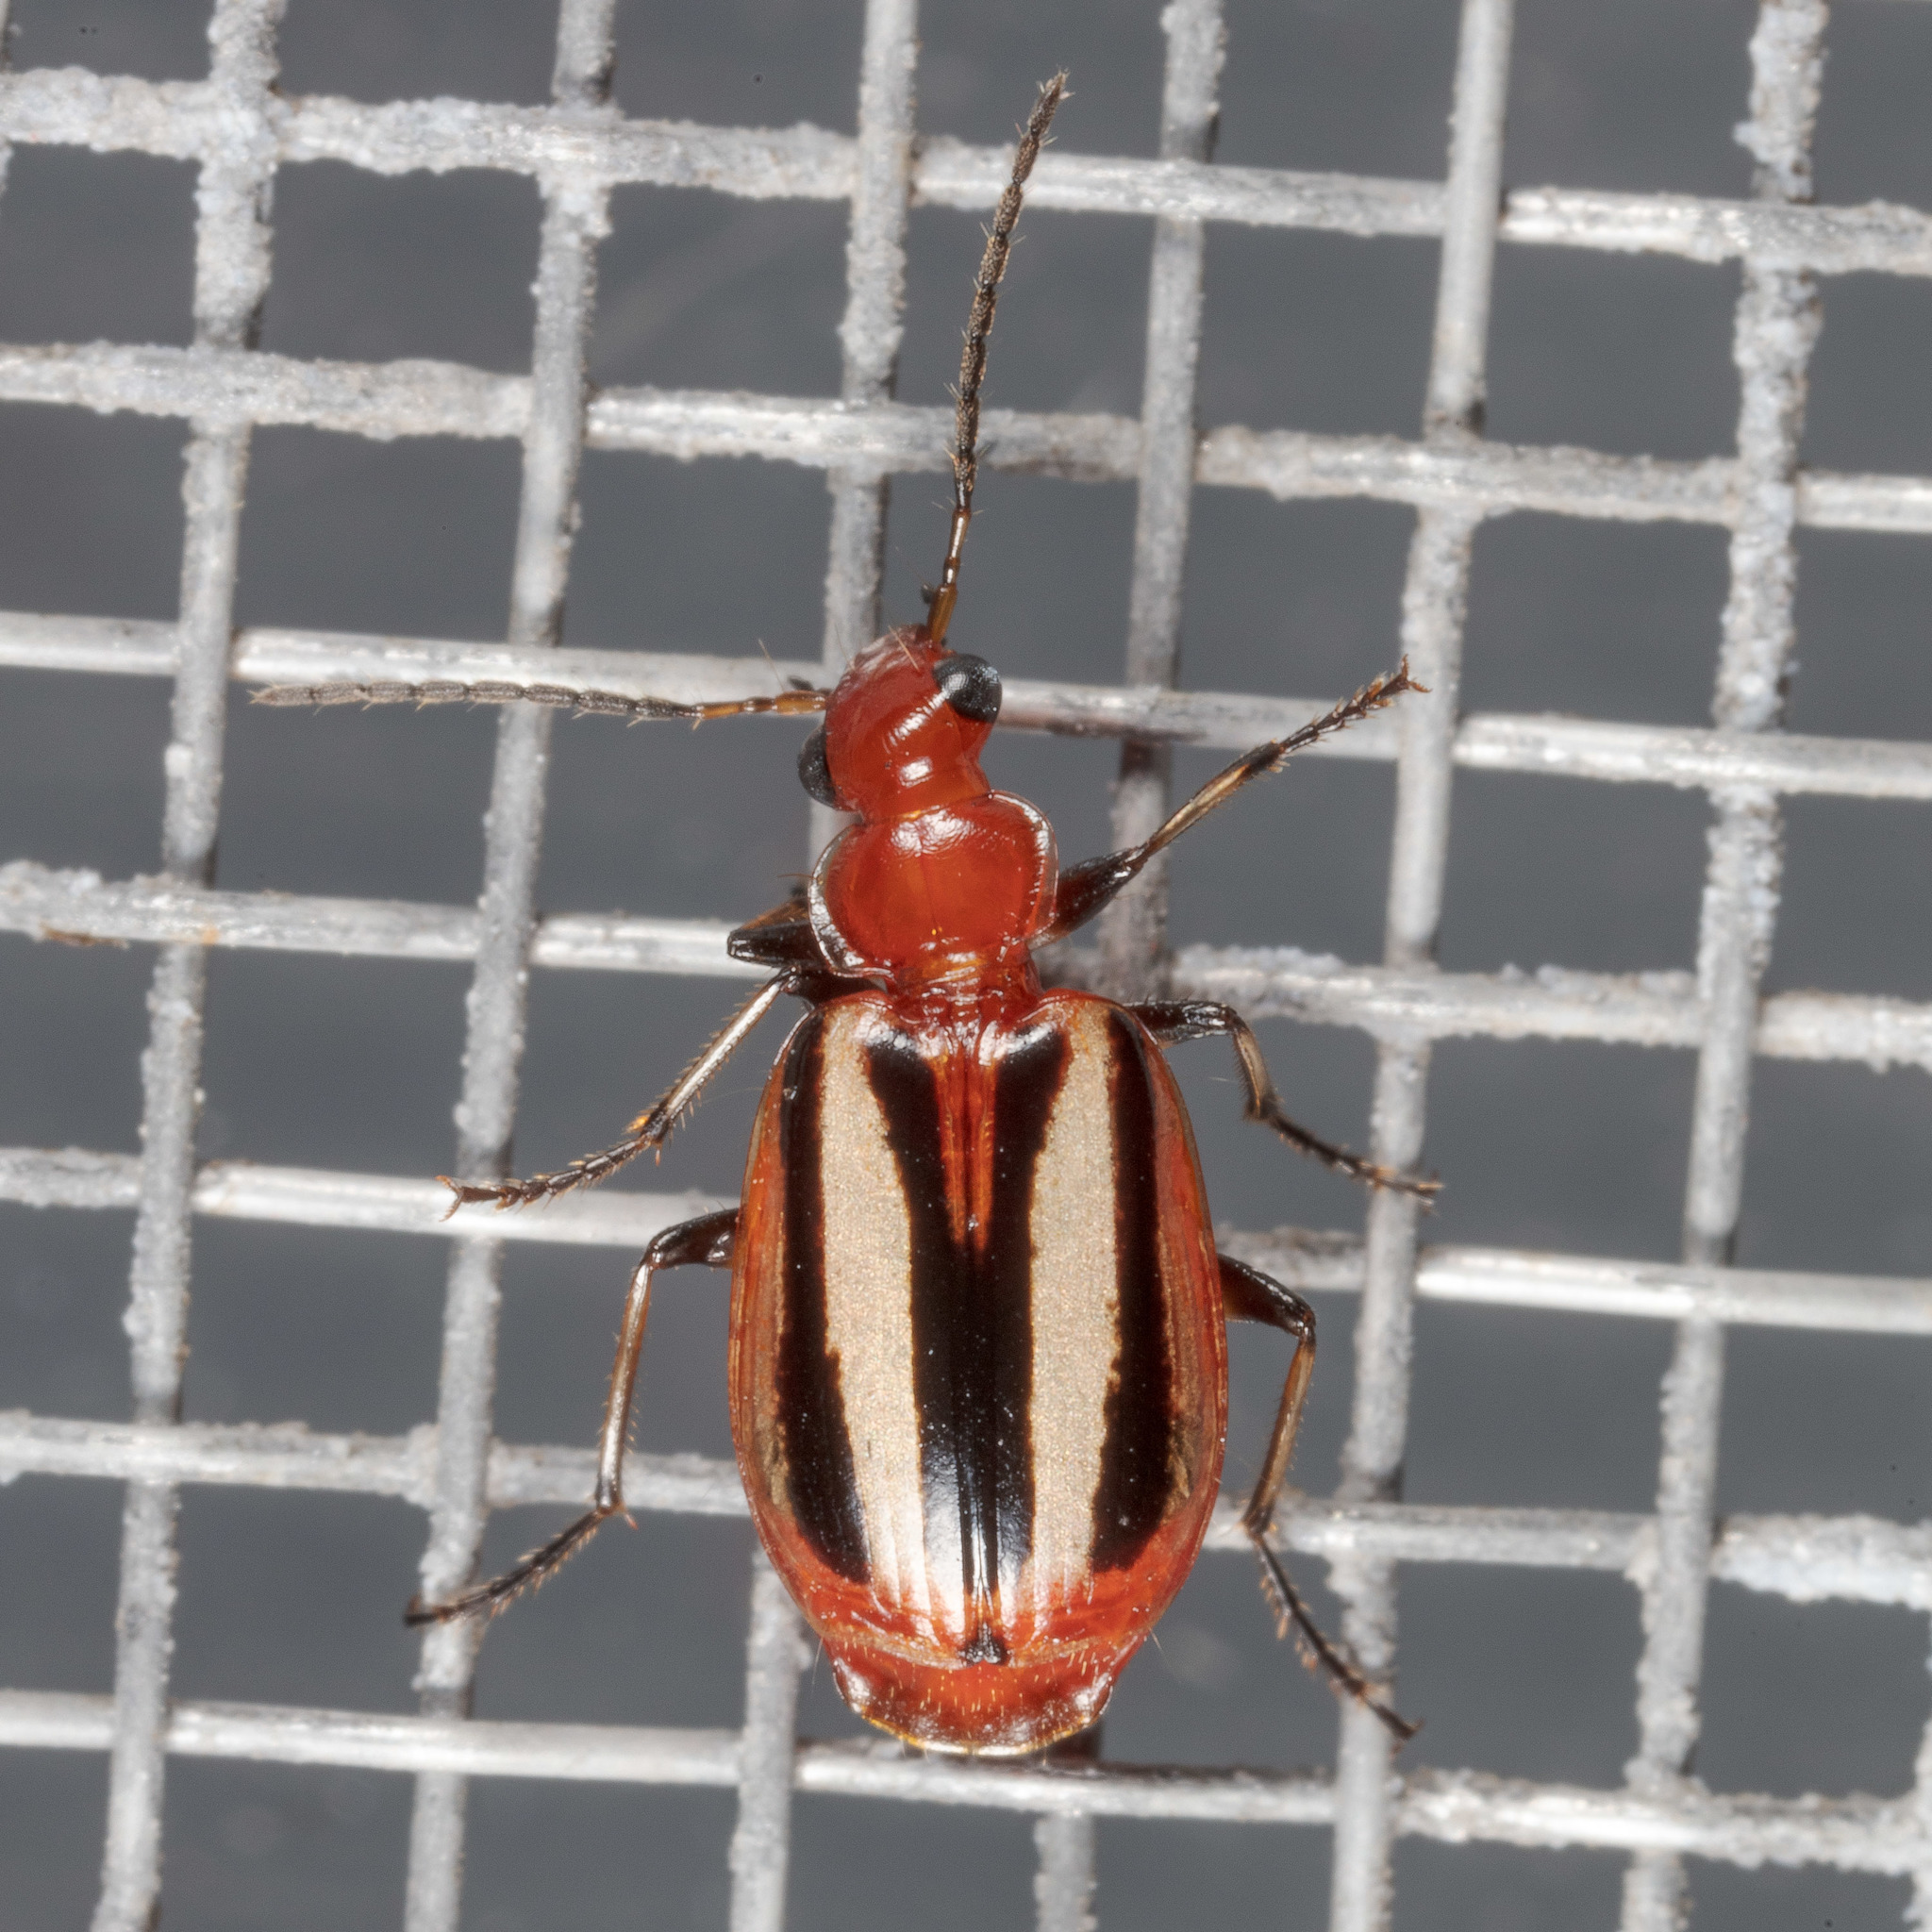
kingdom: Animalia
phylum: Arthropoda
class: Insecta
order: Coleoptera
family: Carabidae
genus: Lebia
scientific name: Lebia vittata
